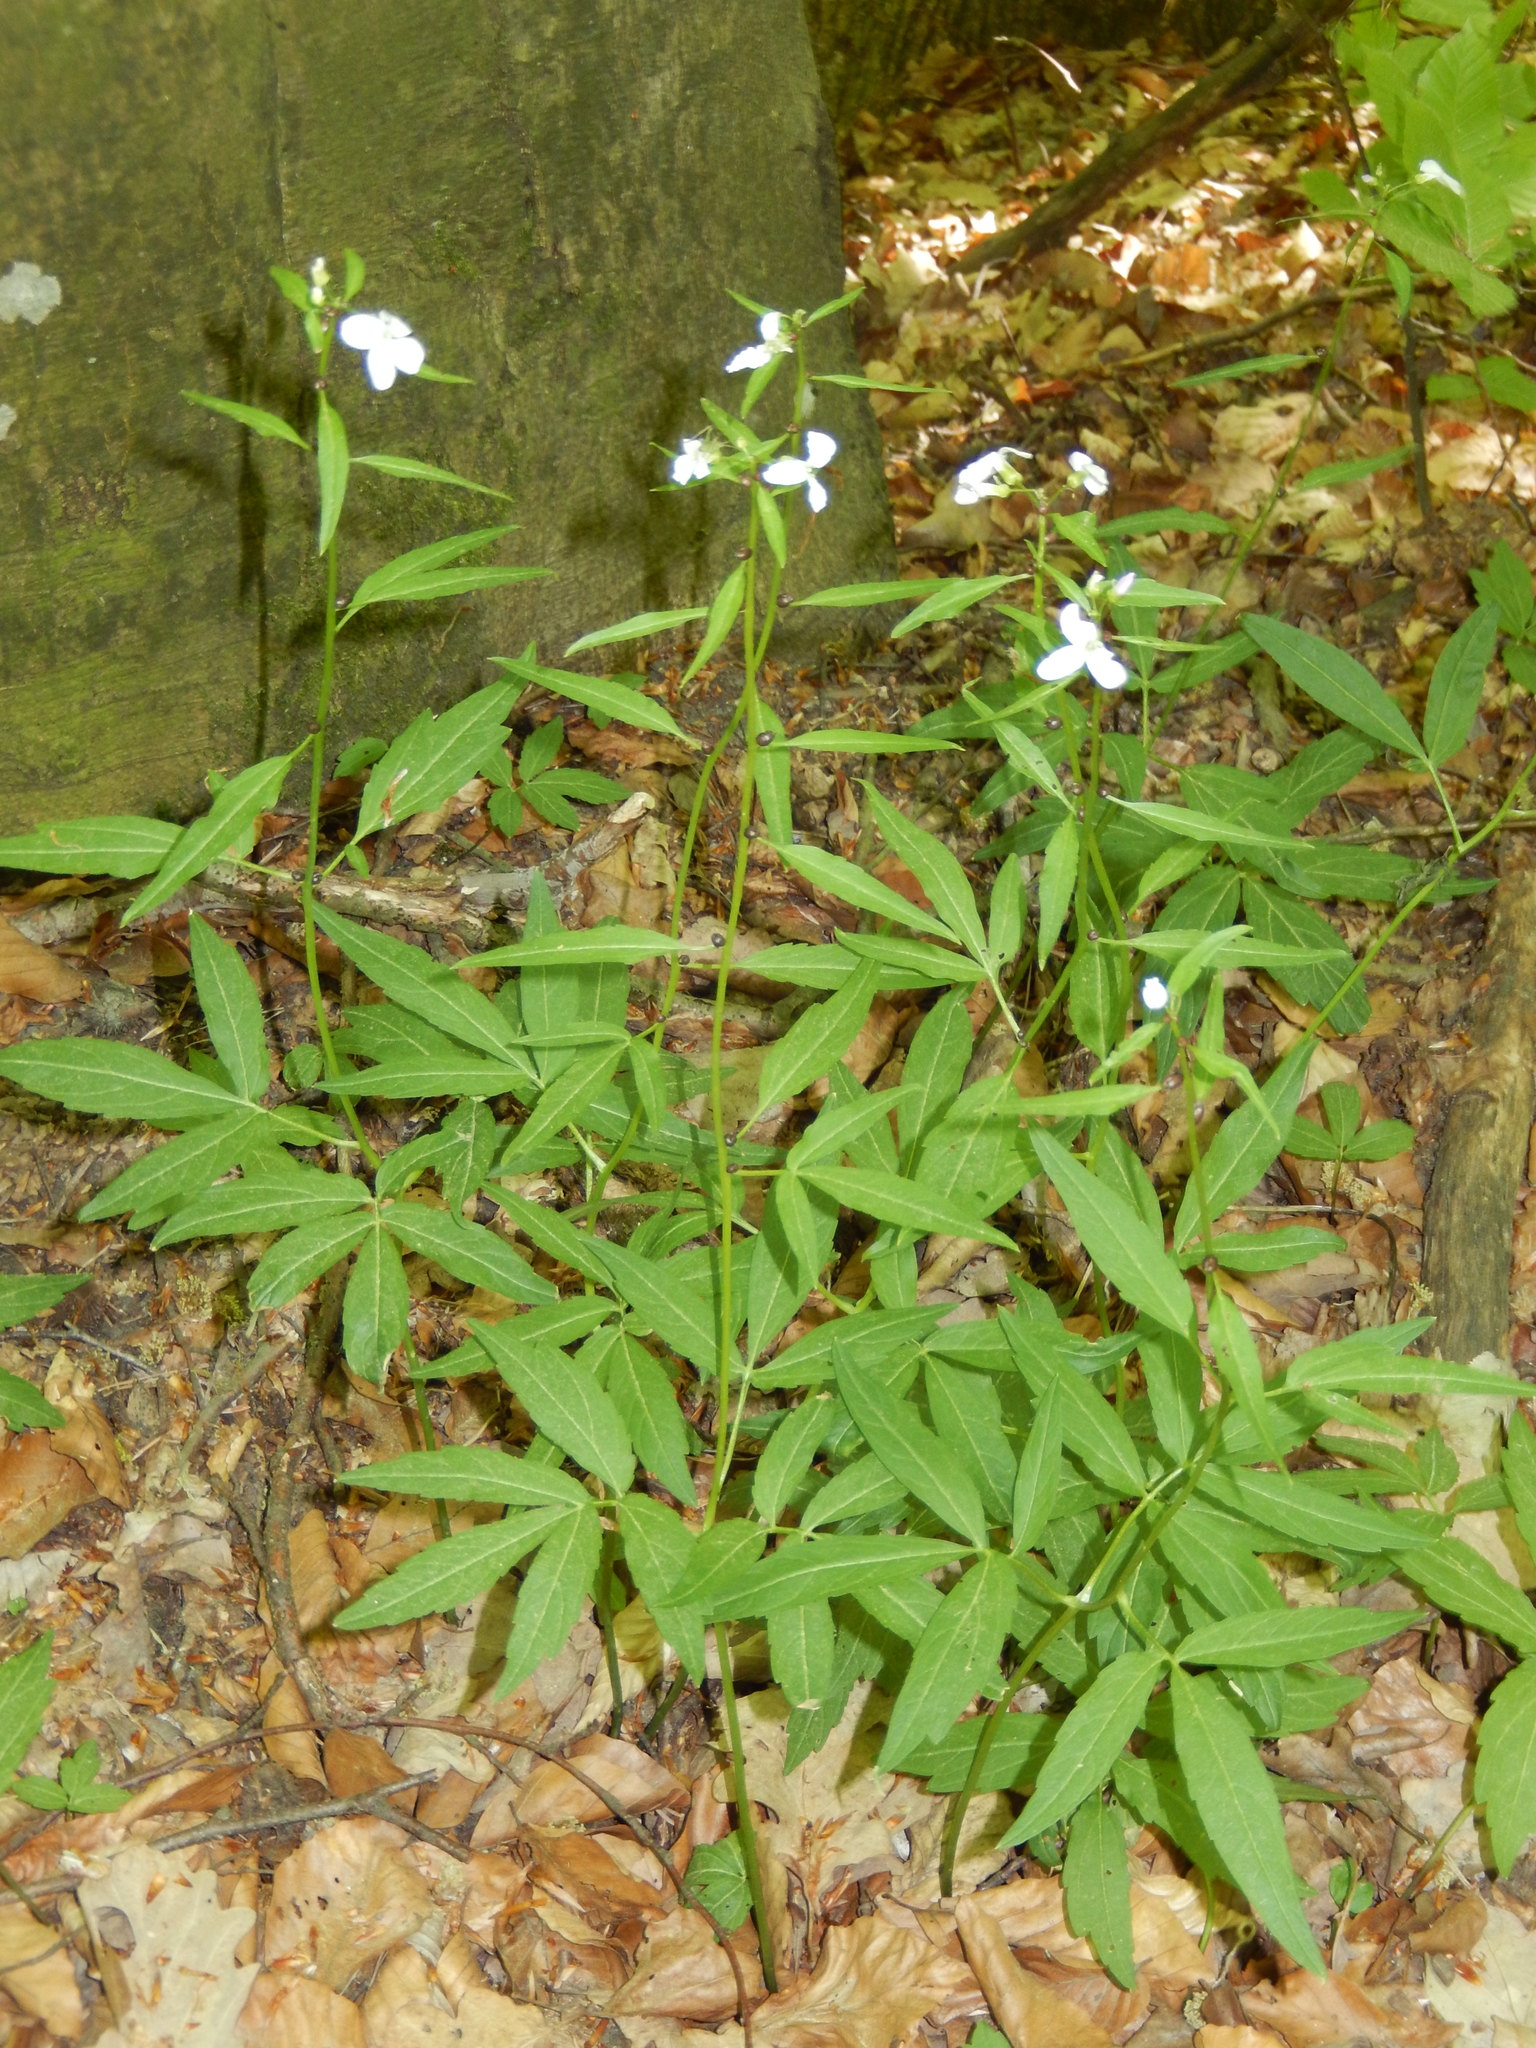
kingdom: Plantae
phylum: Tracheophyta
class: Magnoliopsida
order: Brassicales
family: Brassicaceae
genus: Cardamine
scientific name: Cardamine bulbifera
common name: Coralroot bittercress
